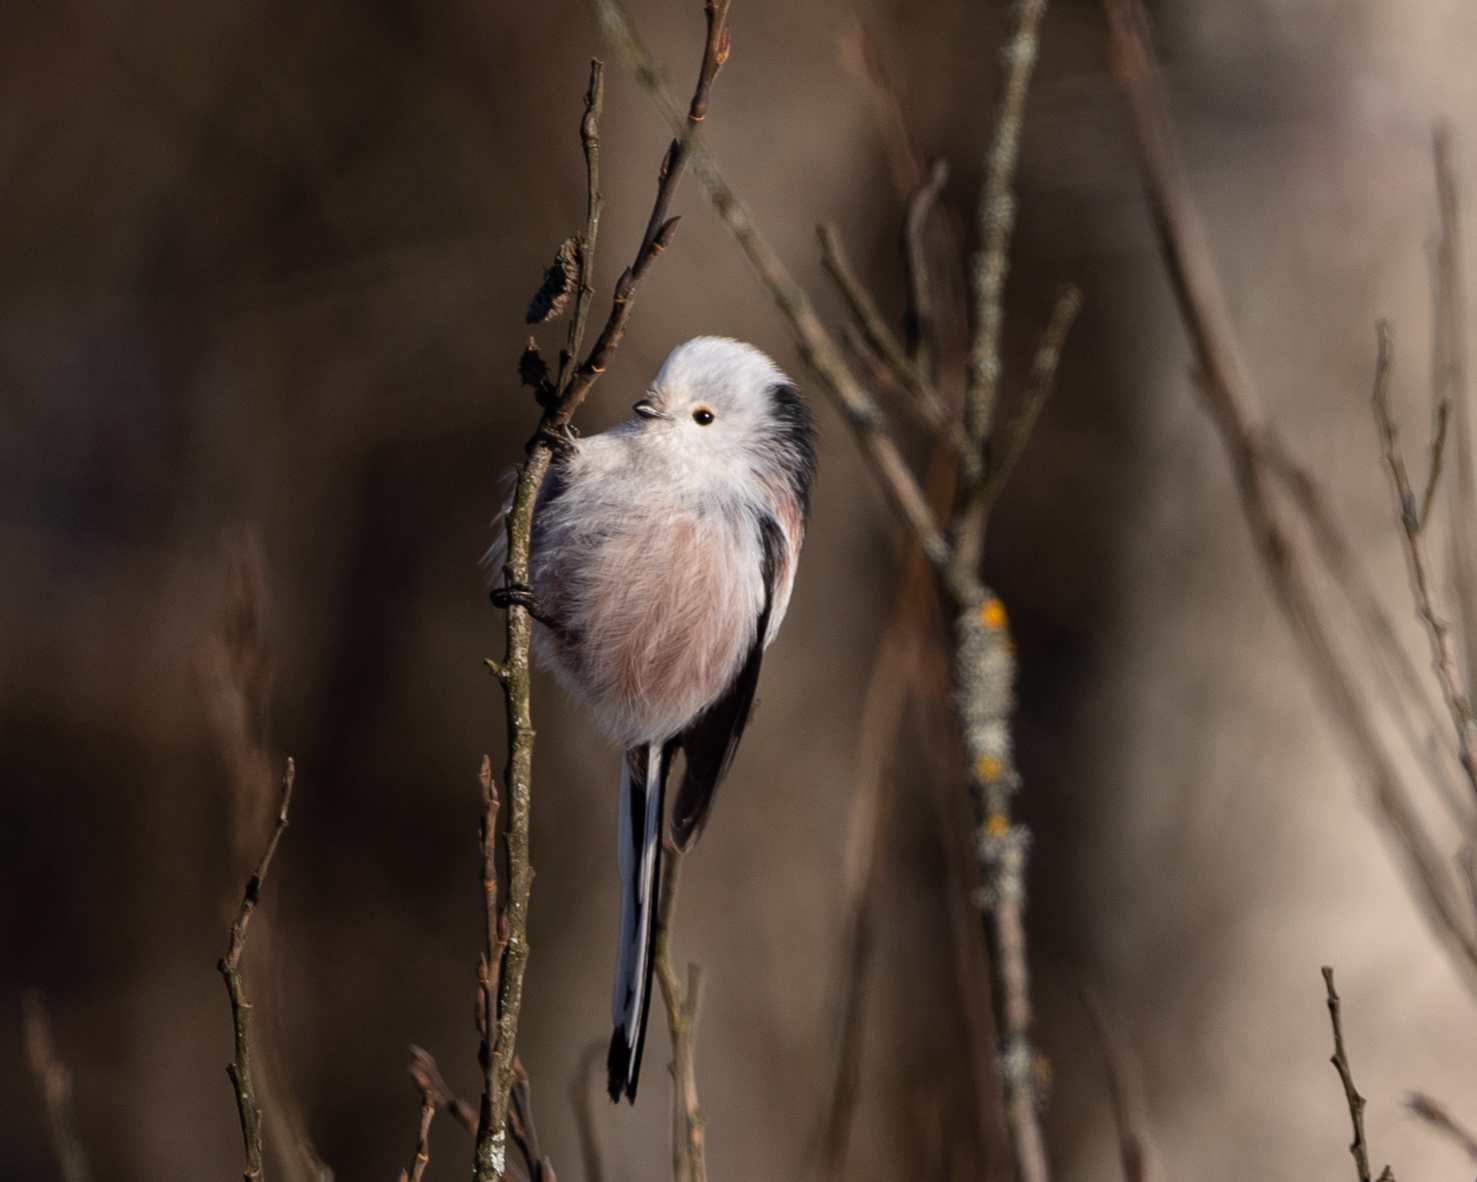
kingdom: Animalia
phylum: Chordata
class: Aves
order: Passeriformes
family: Aegithalidae
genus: Aegithalos
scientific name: Aegithalos caudatus
